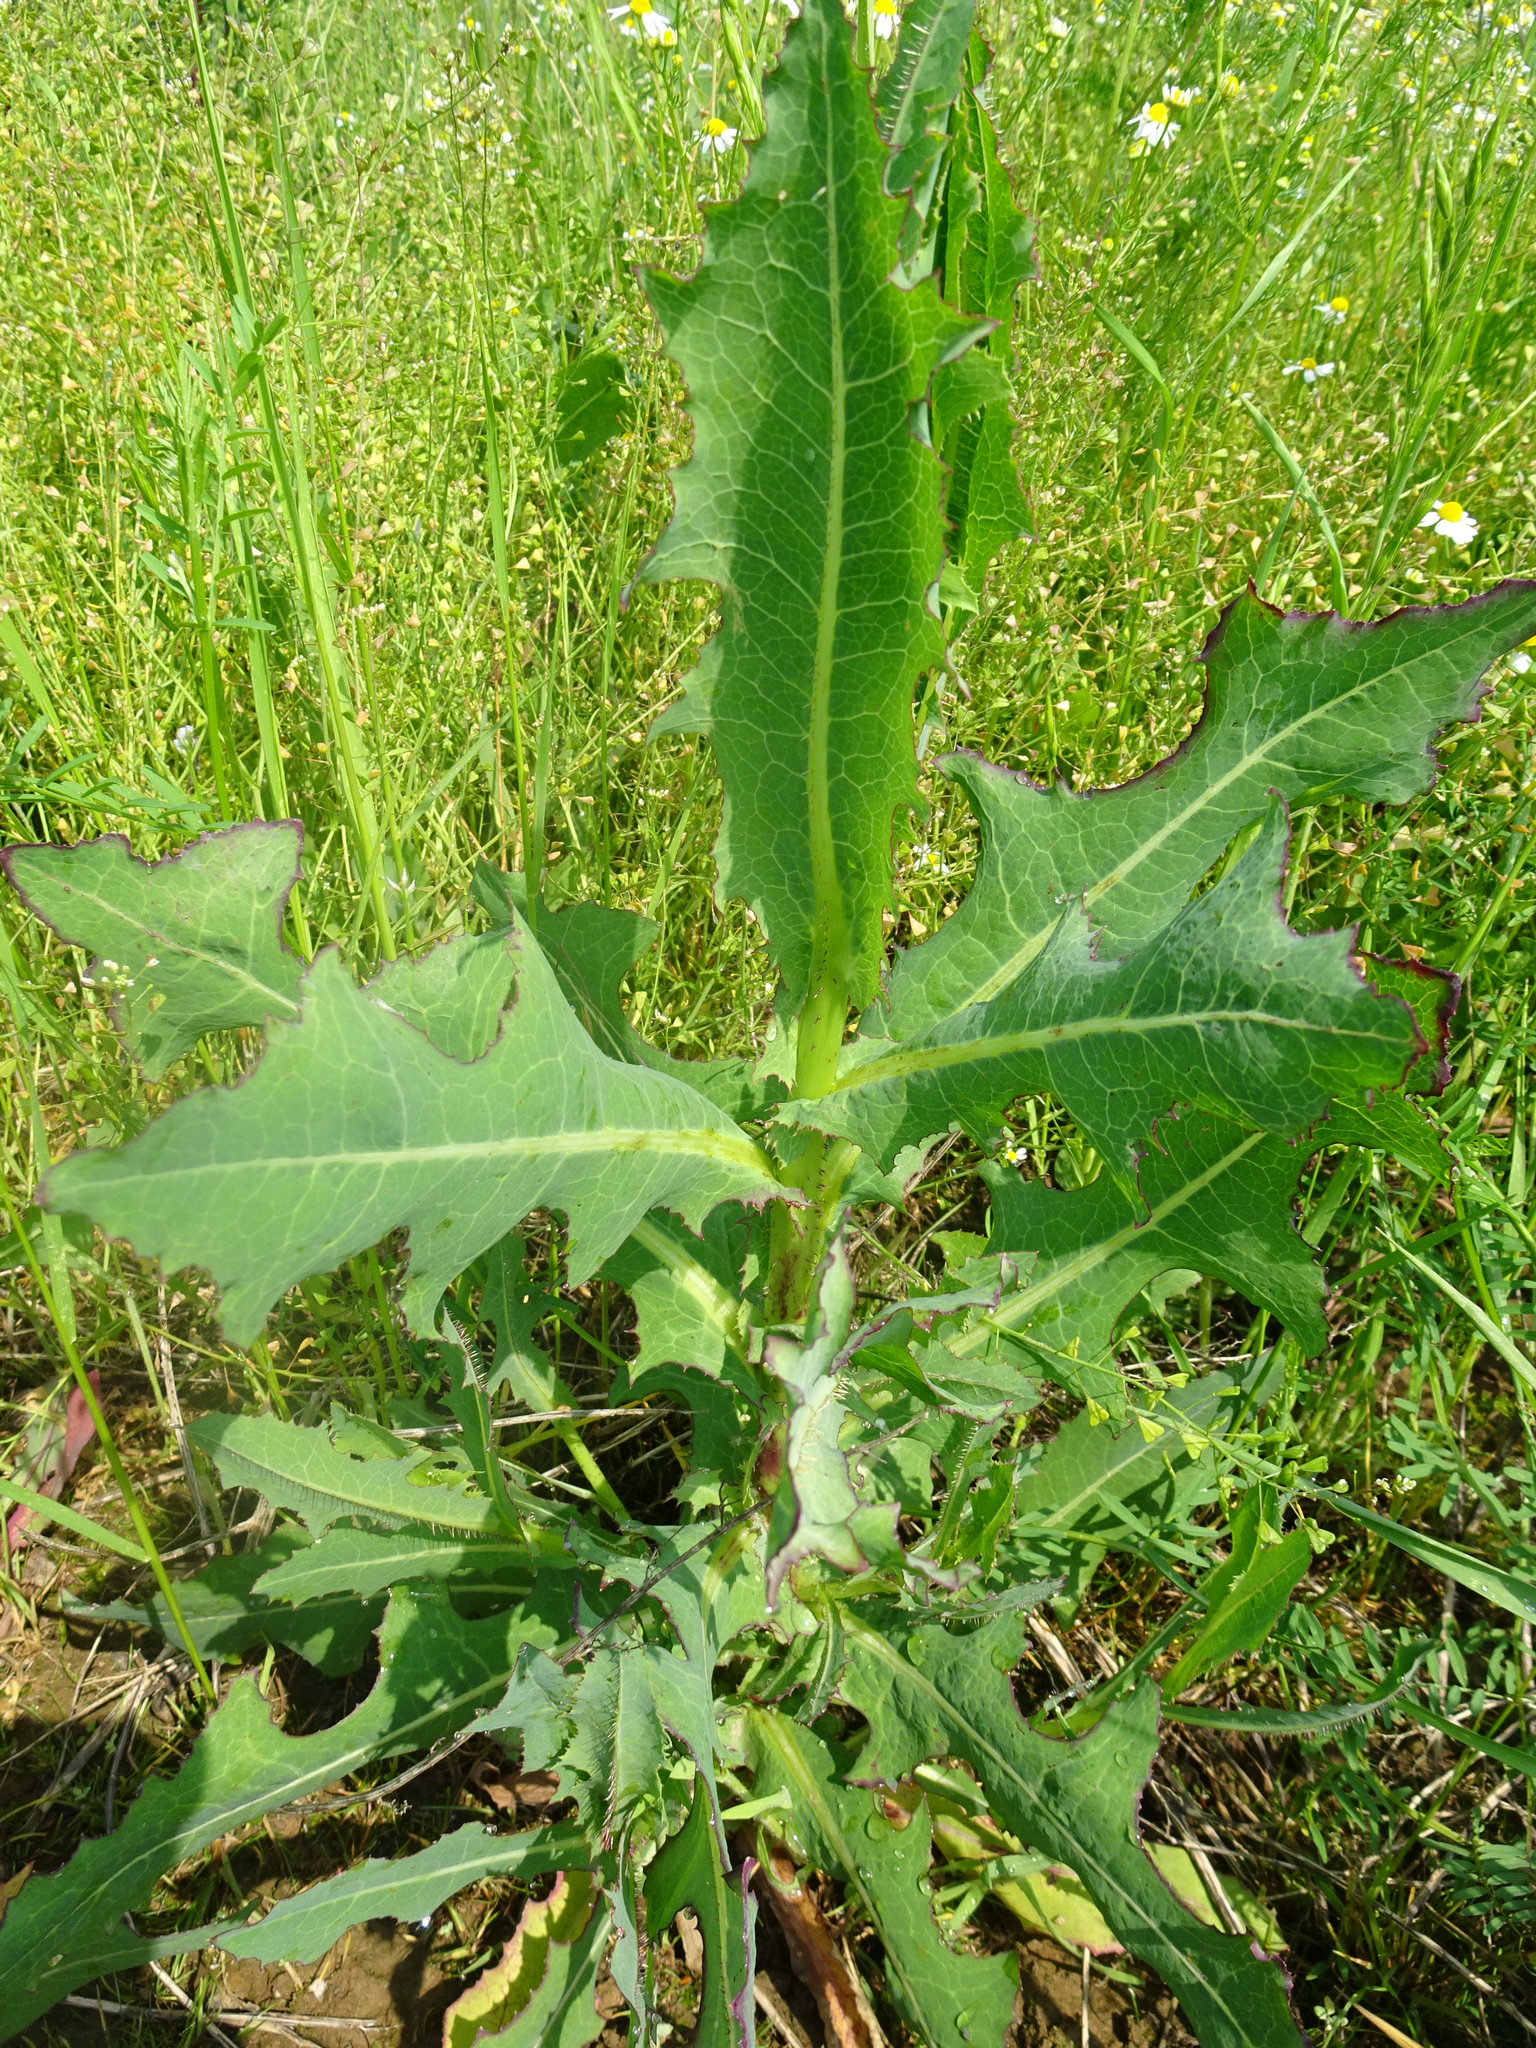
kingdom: Plantae
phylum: Tracheophyta
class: Magnoliopsida
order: Asterales
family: Asteraceae
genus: Lactuca
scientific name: Lactuca serriola
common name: Prickly lettuce
